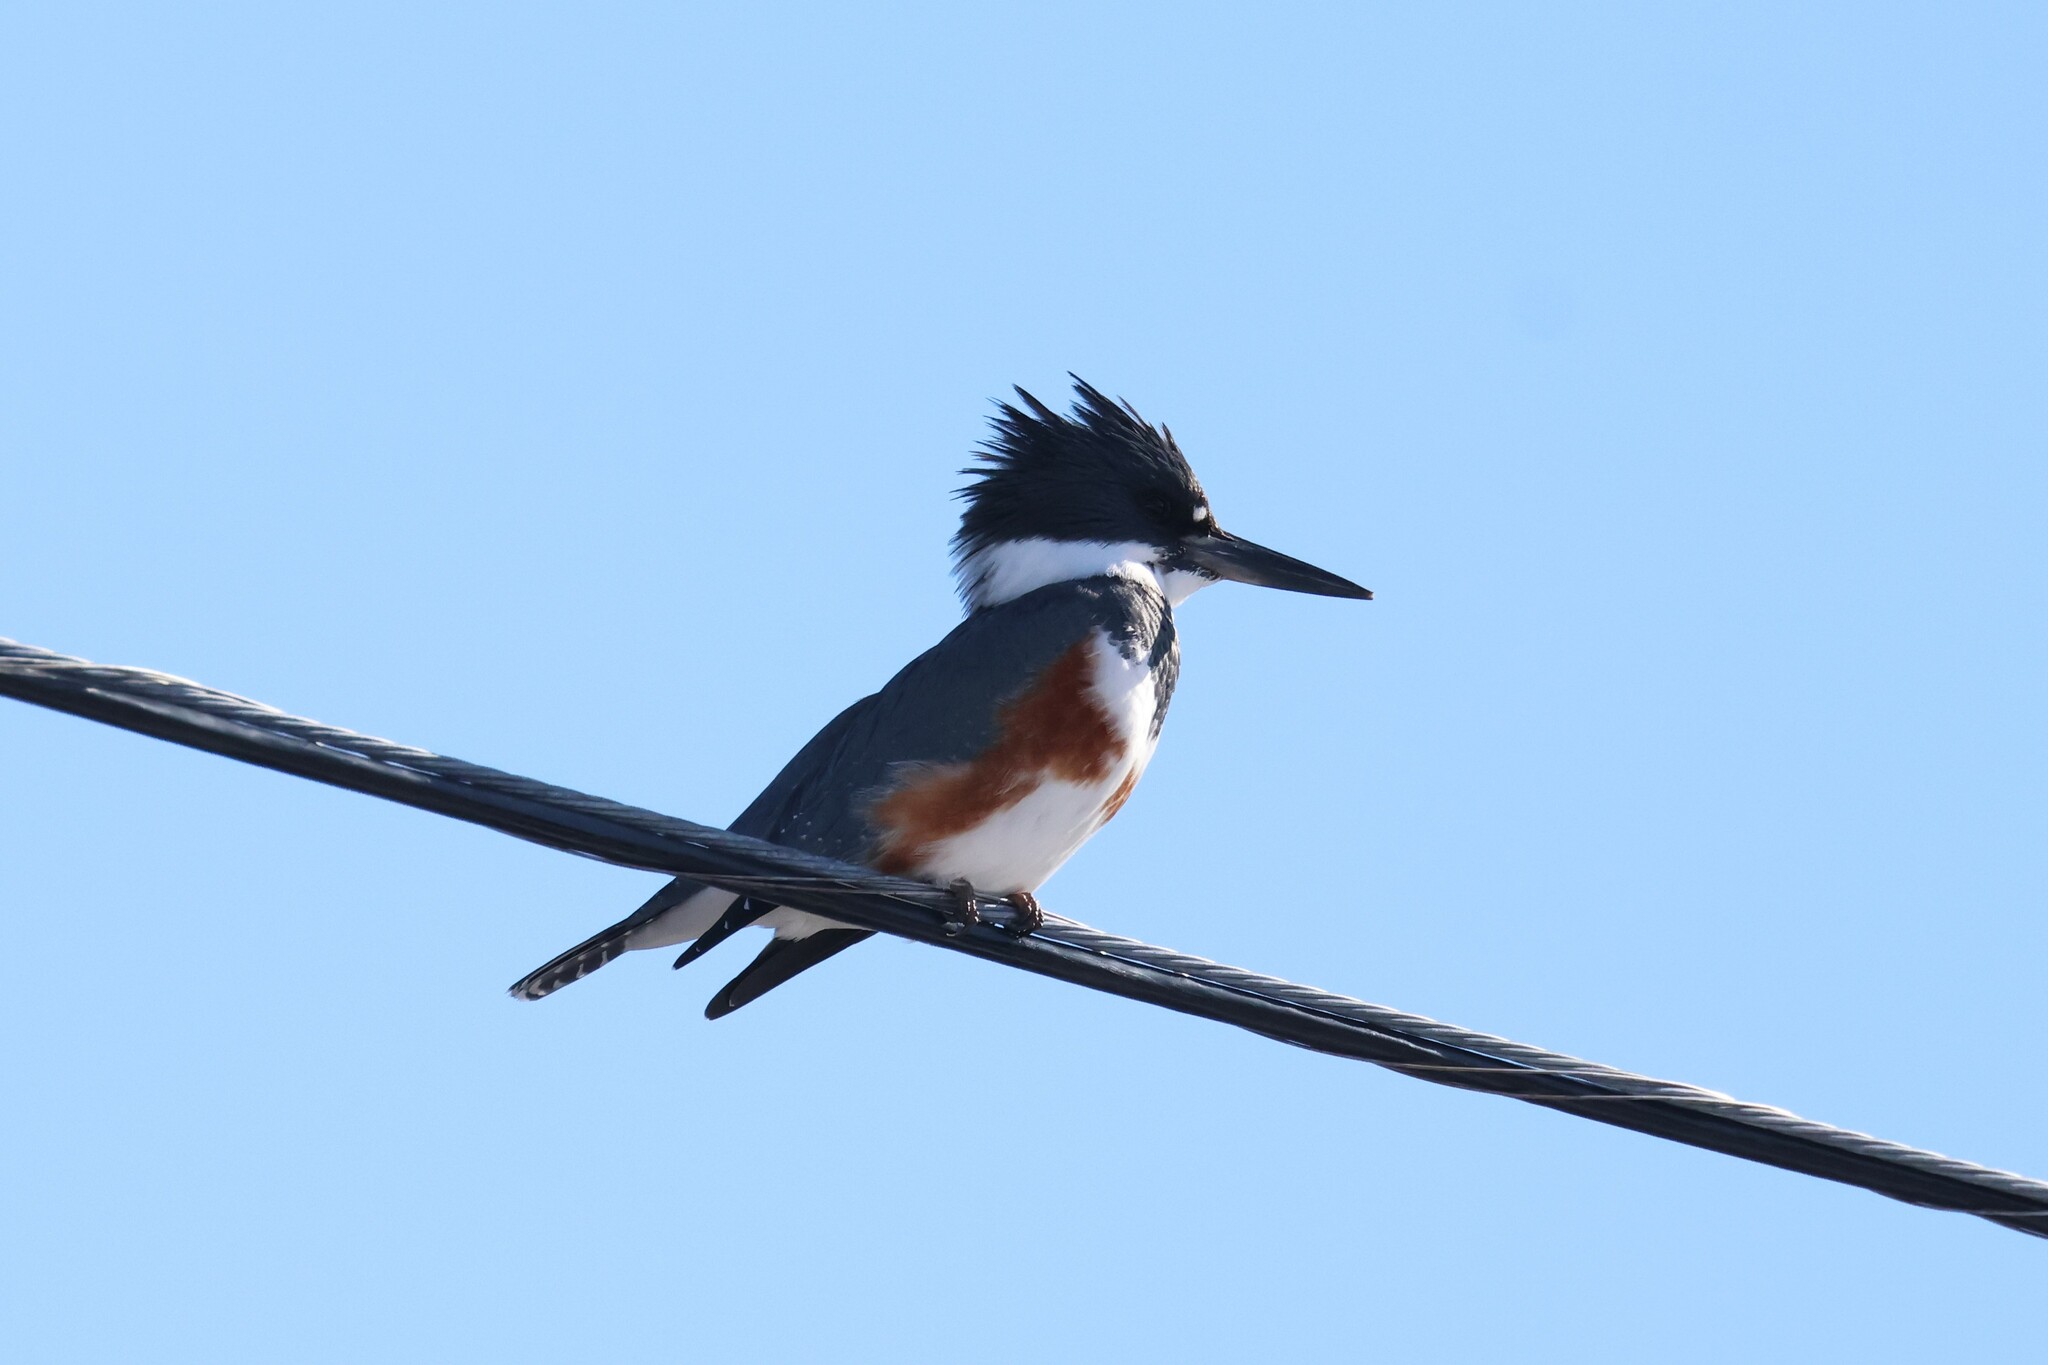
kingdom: Animalia
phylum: Chordata
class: Aves
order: Coraciiformes
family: Alcedinidae
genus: Megaceryle
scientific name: Megaceryle alcyon
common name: Belted kingfisher
